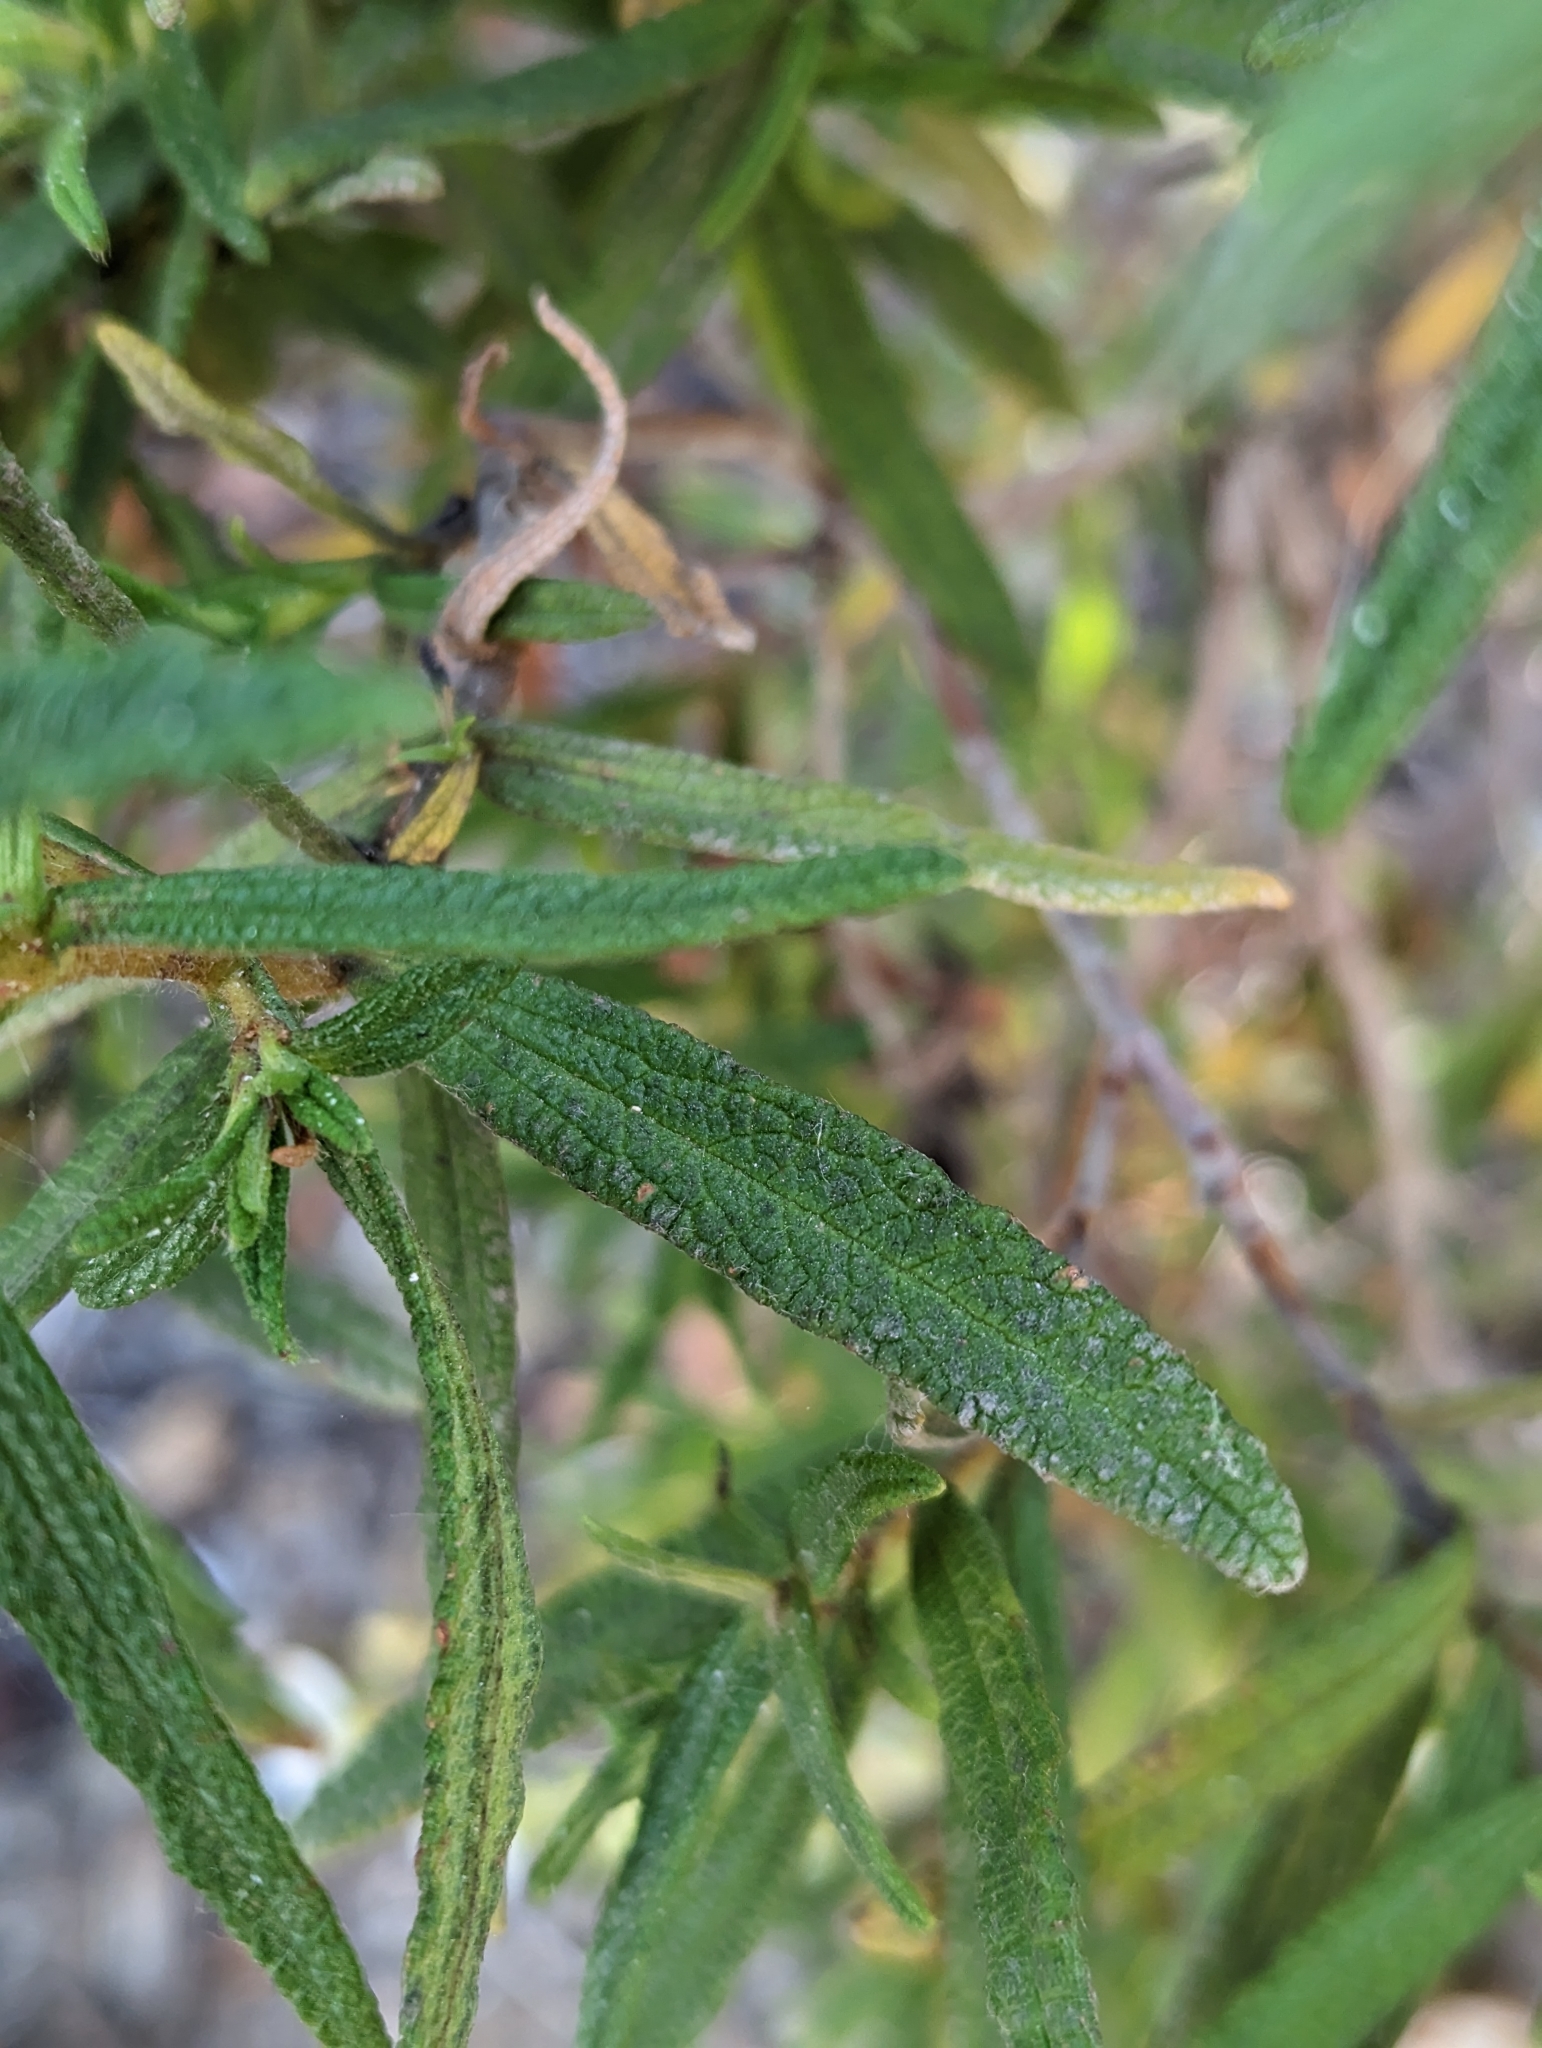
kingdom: Plantae
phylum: Tracheophyta
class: Magnoliopsida
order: Malvales
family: Cistaceae
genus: Cistus
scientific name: Cistus monspeliensis
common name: Montpelier cistus
